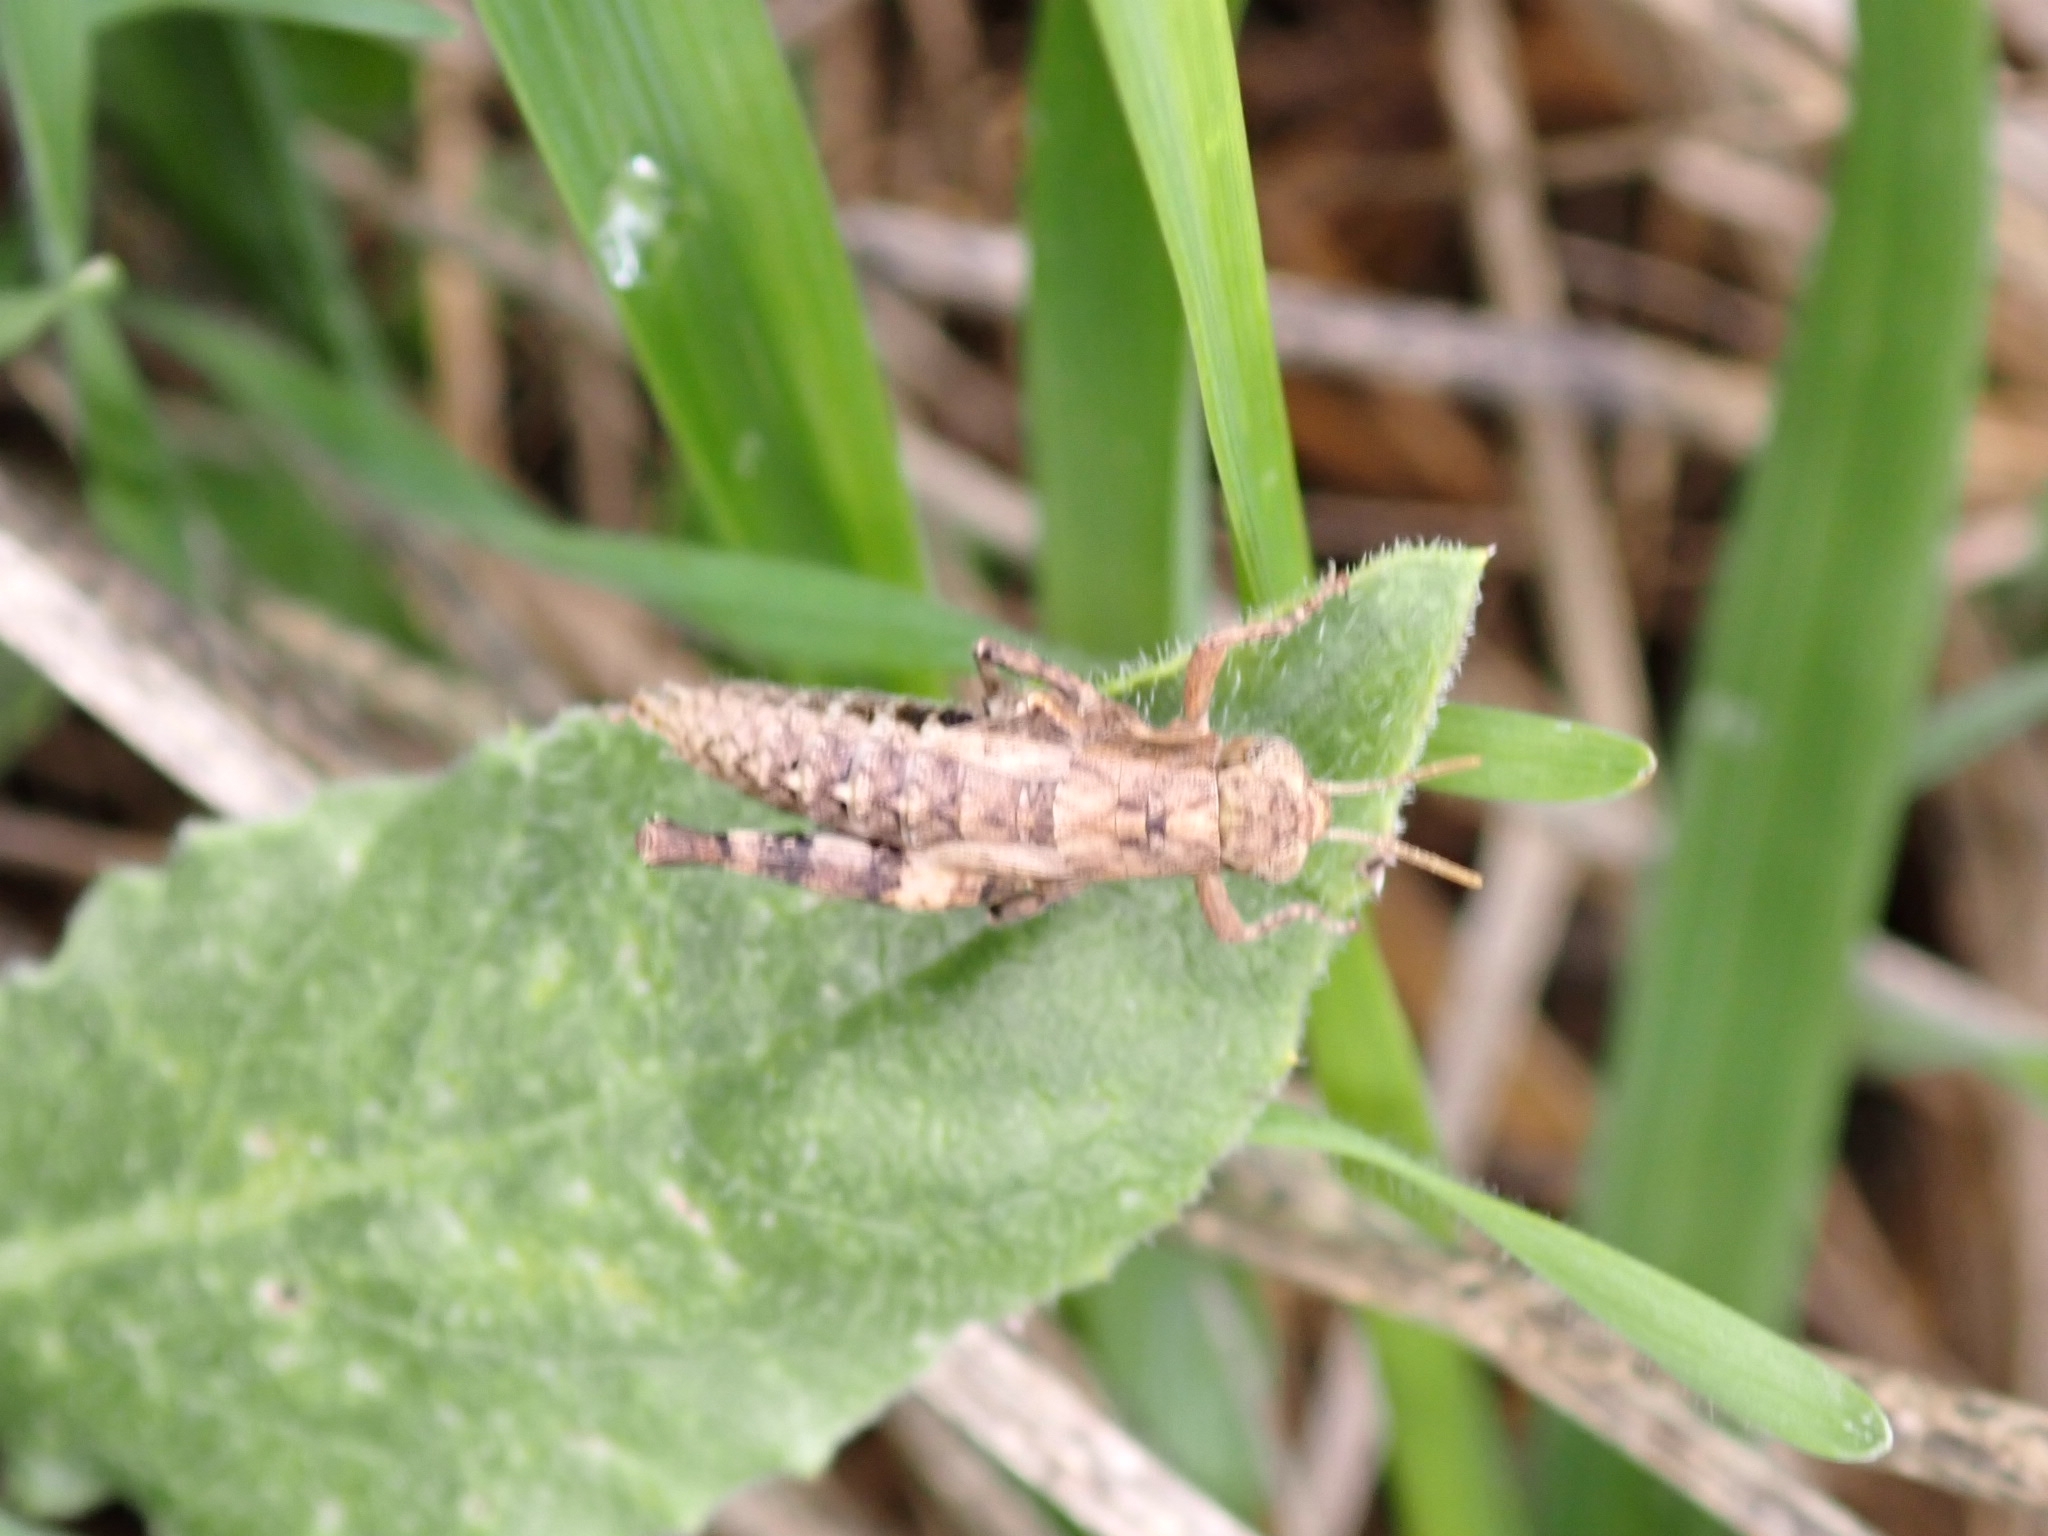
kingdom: Animalia
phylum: Arthropoda
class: Insecta
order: Orthoptera
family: Acrididae
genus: Pezotettix
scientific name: Pezotettix giornae
